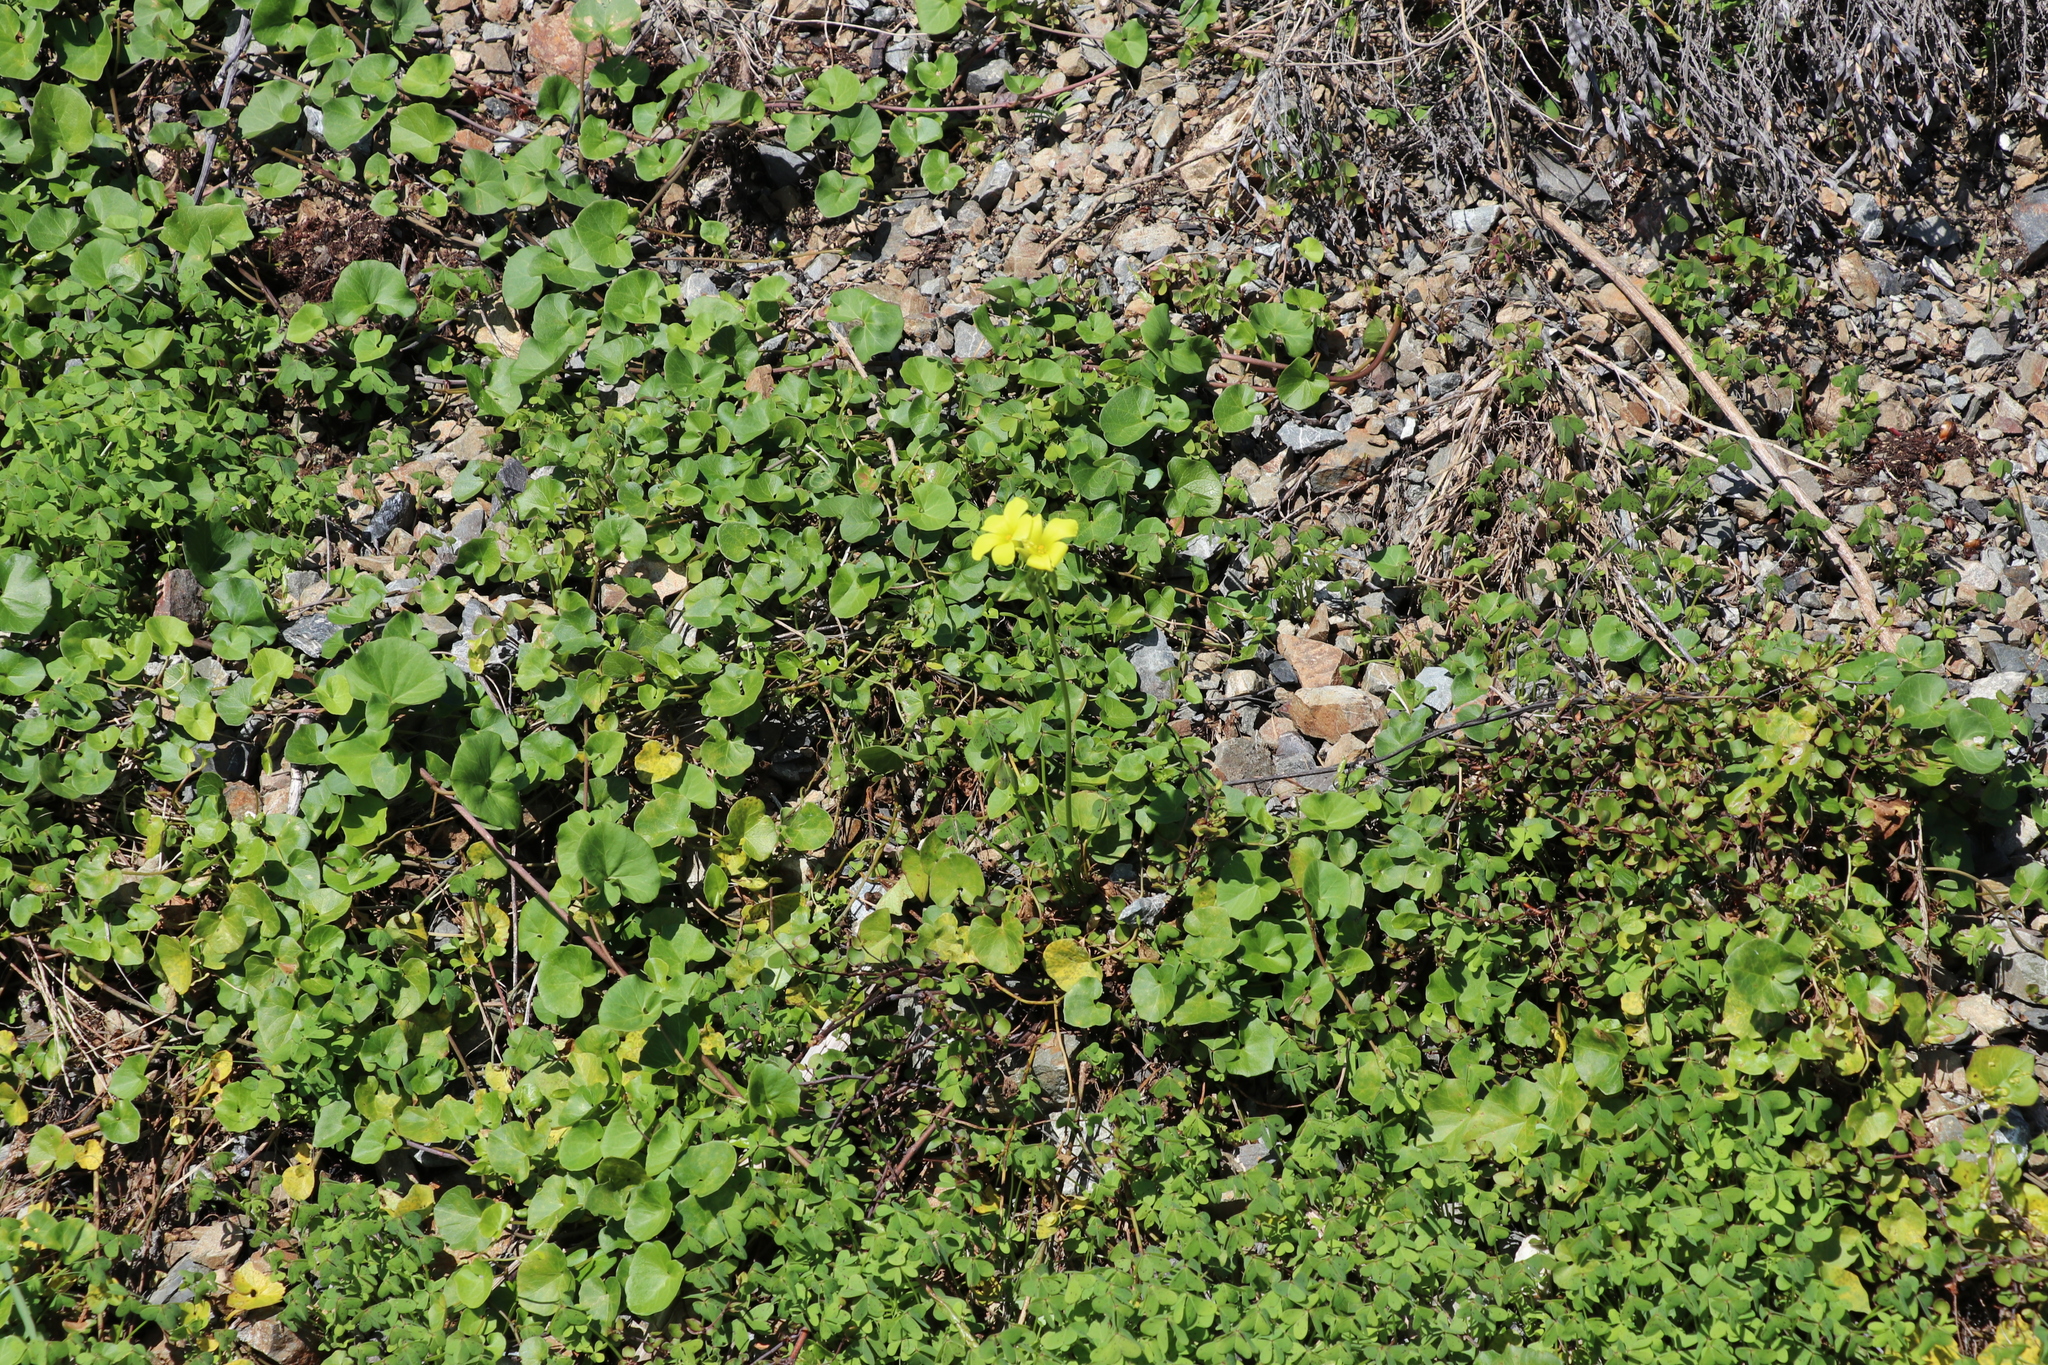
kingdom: Plantae
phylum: Tracheophyta
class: Magnoliopsida
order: Oxalidales
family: Oxalidaceae
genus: Oxalis
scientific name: Oxalis pes-caprae
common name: Bermuda-buttercup
